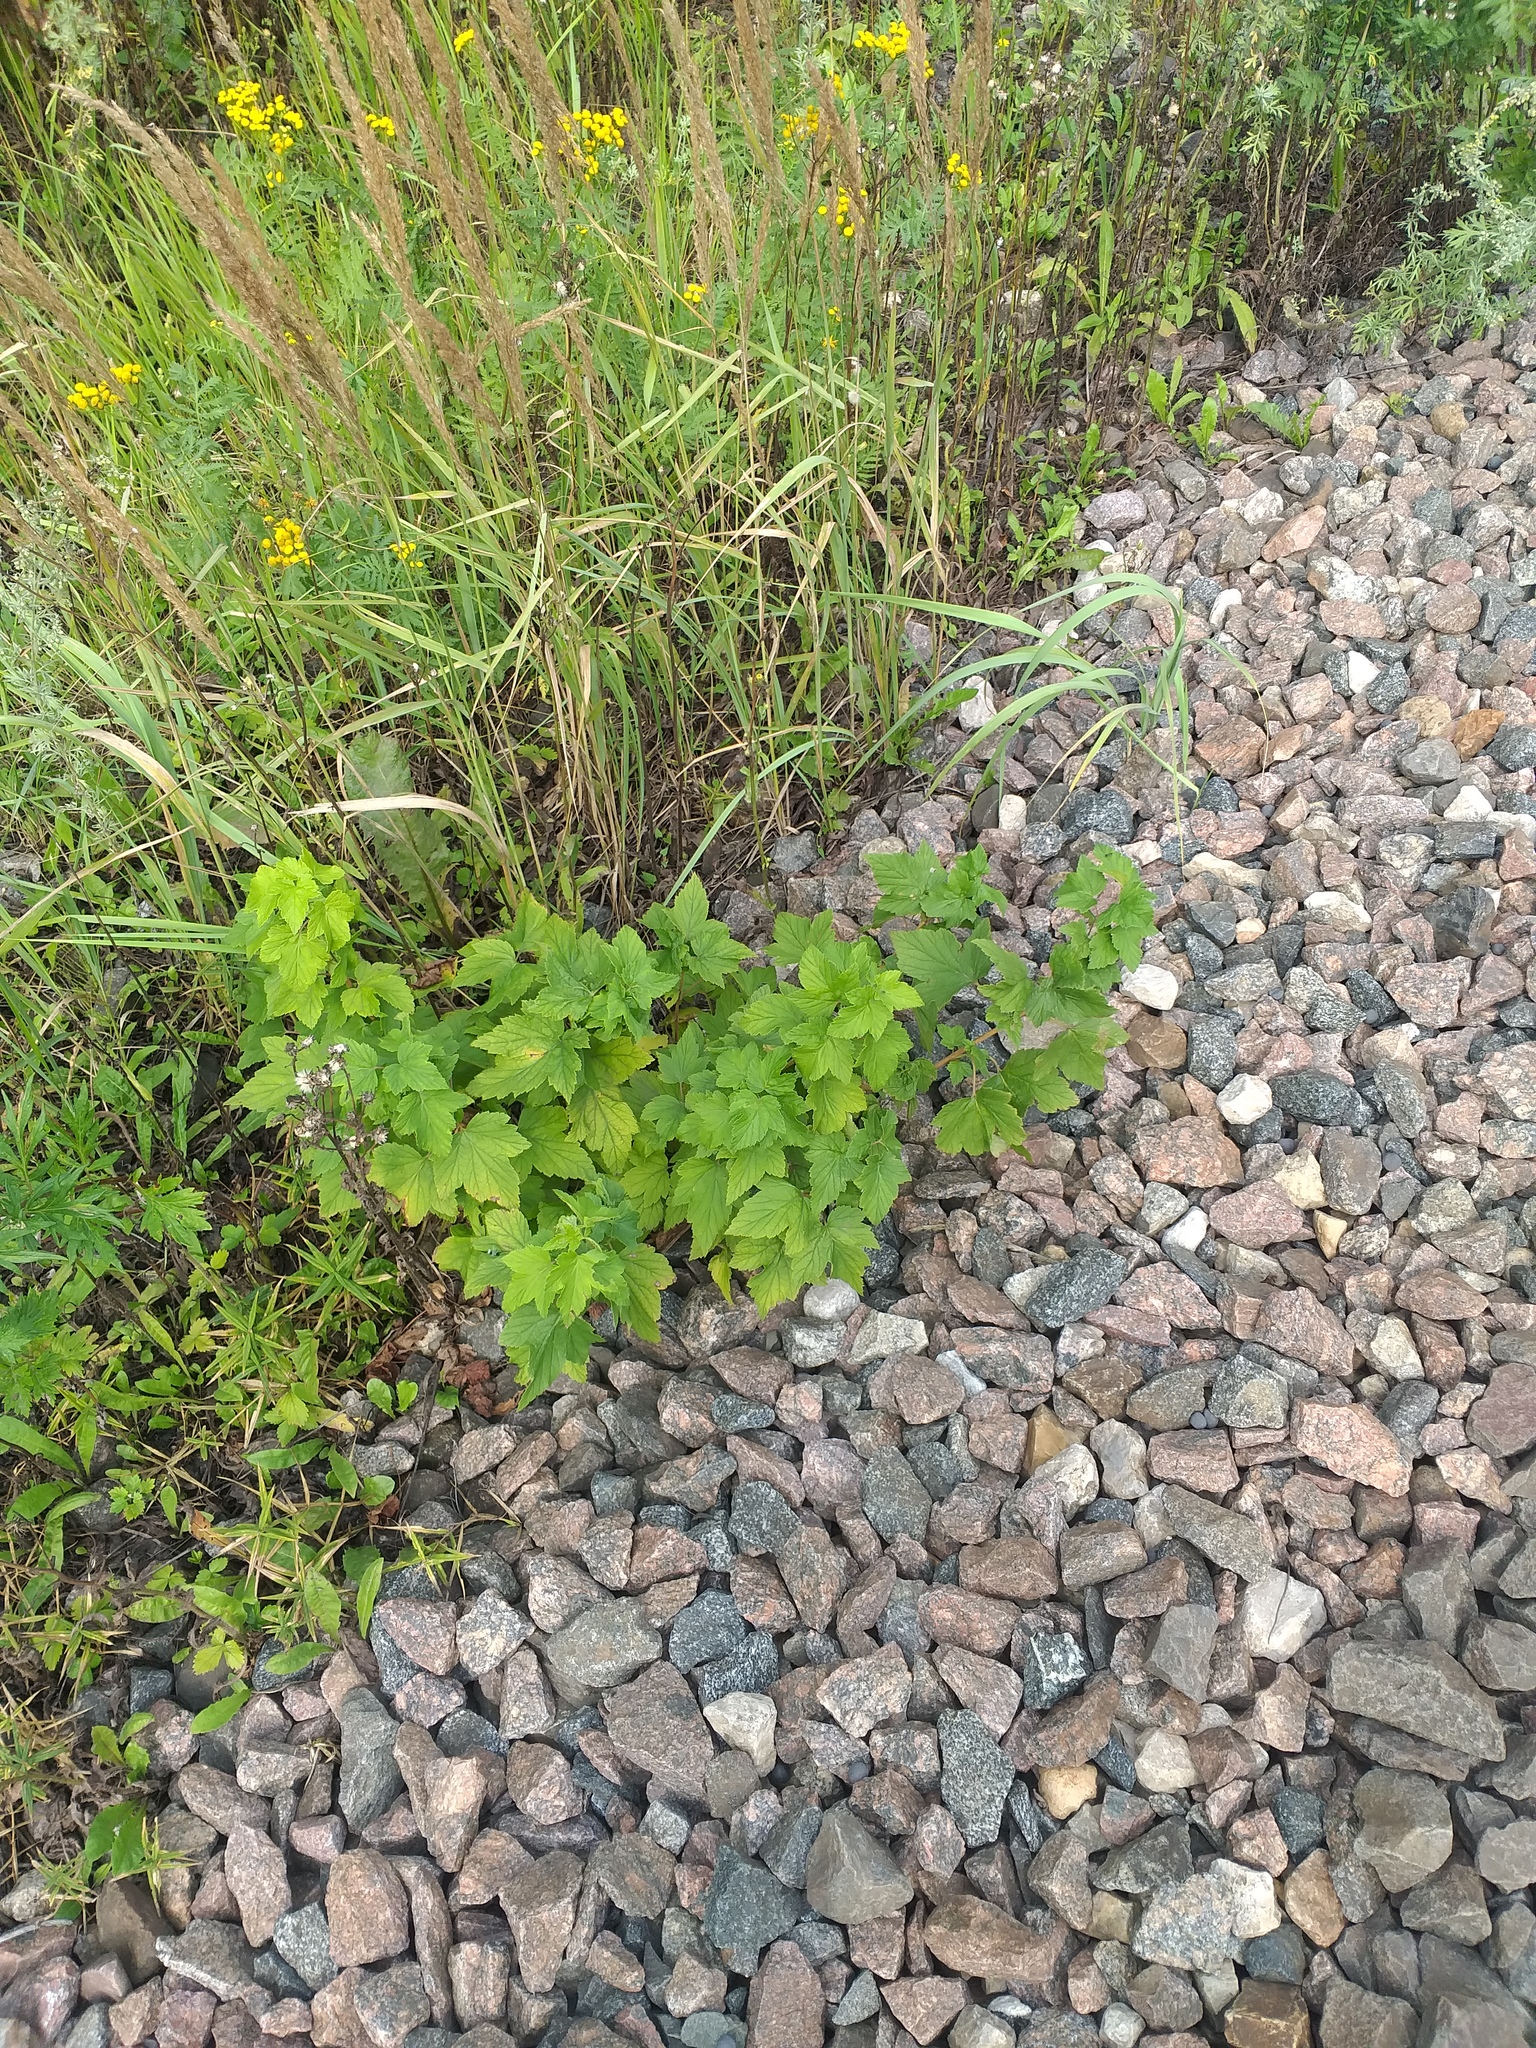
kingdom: Plantae
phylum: Tracheophyta
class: Magnoliopsida
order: Saxifragales
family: Grossulariaceae
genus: Ribes
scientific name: Ribes nigrum
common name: Black currant
